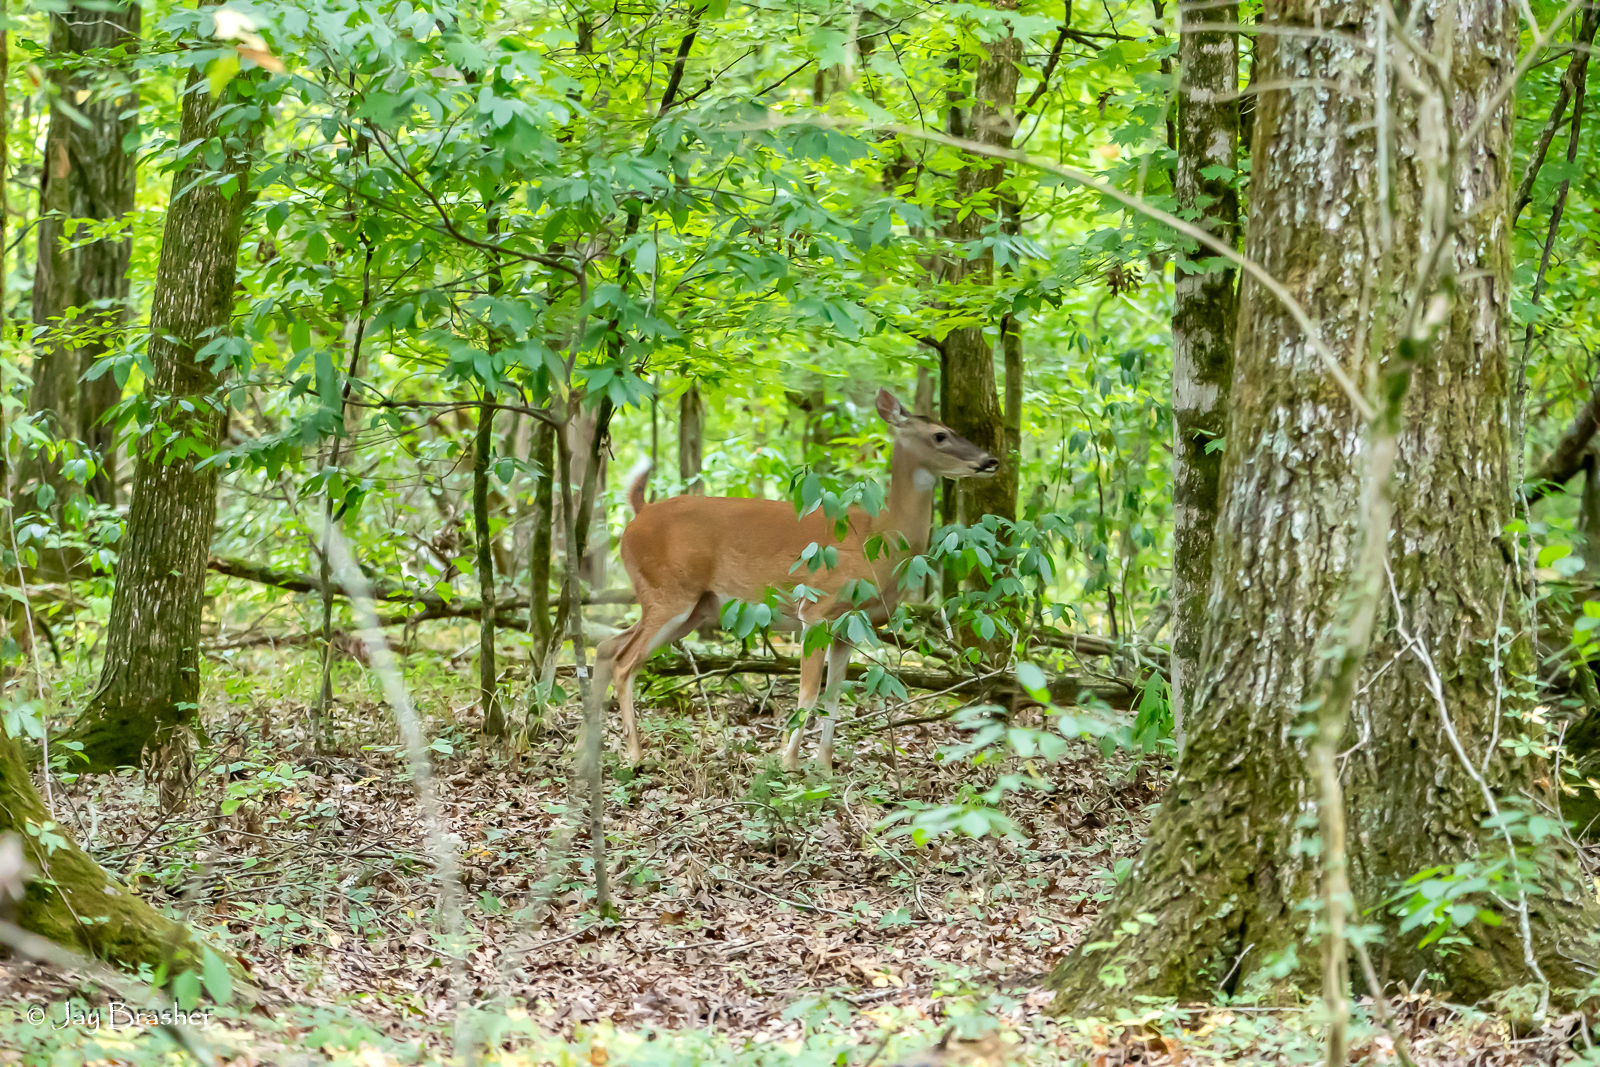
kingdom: Animalia
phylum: Chordata
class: Mammalia
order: Artiodactyla
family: Cervidae
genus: Odocoileus
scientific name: Odocoileus virginianus
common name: White-tailed deer
